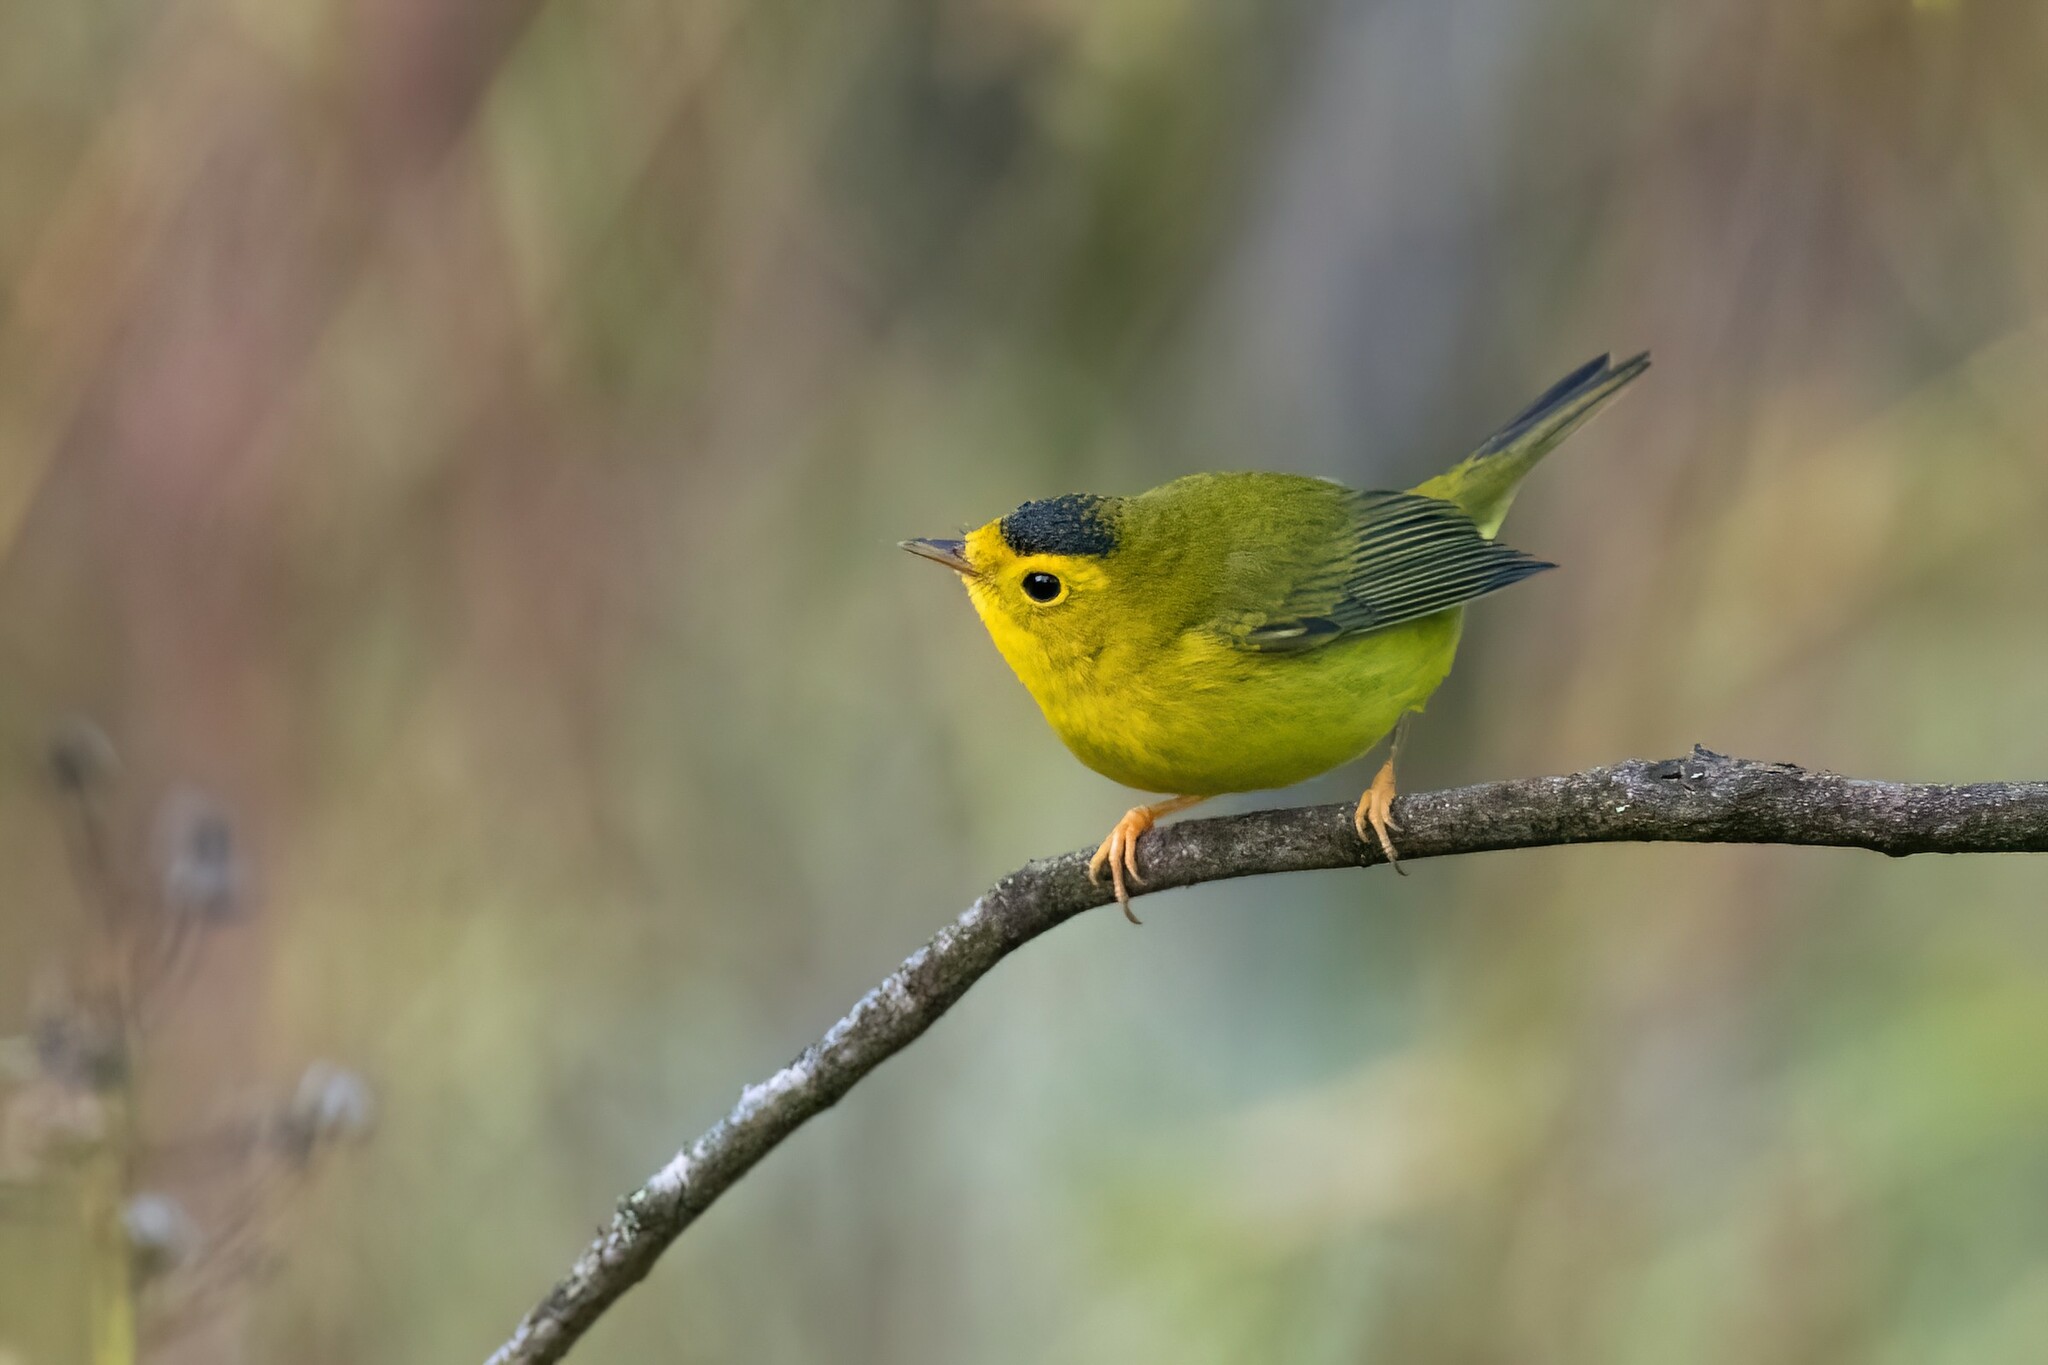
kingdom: Animalia
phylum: Chordata
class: Aves
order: Passeriformes
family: Parulidae
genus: Cardellina
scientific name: Cardellina pusilla
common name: Wilson's warbler
